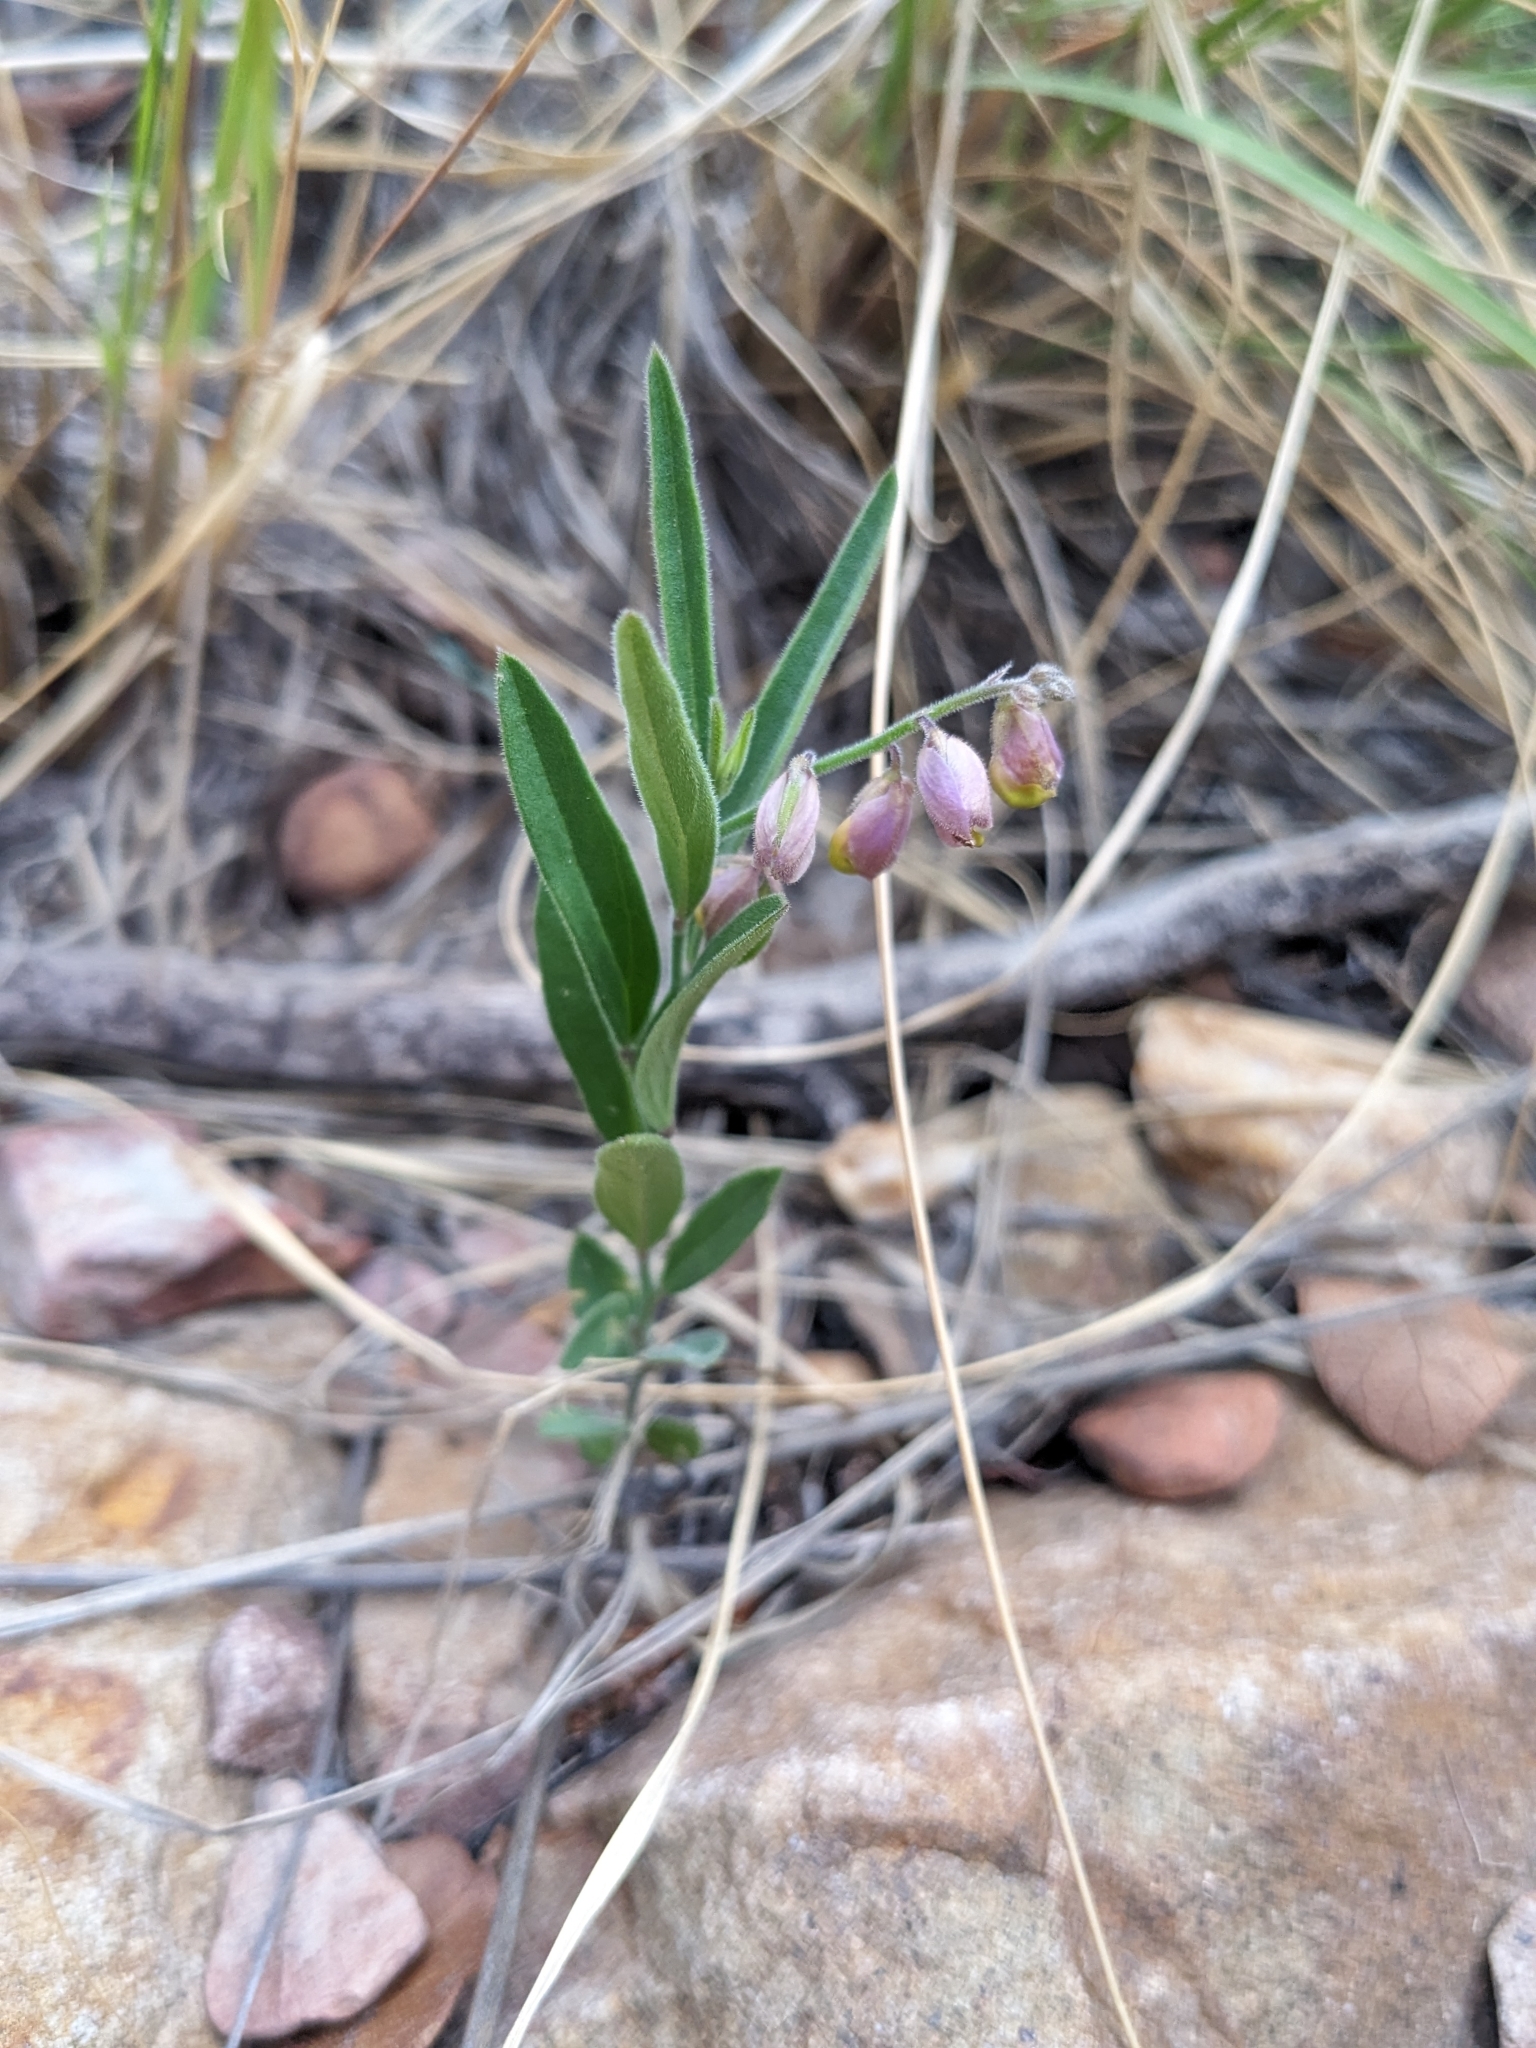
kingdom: Plantae
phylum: Tracheophyta
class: Magnoliopsida
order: Fabales
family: Polygalaceae
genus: Hebecarpa
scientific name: Hebecarpa obscura
